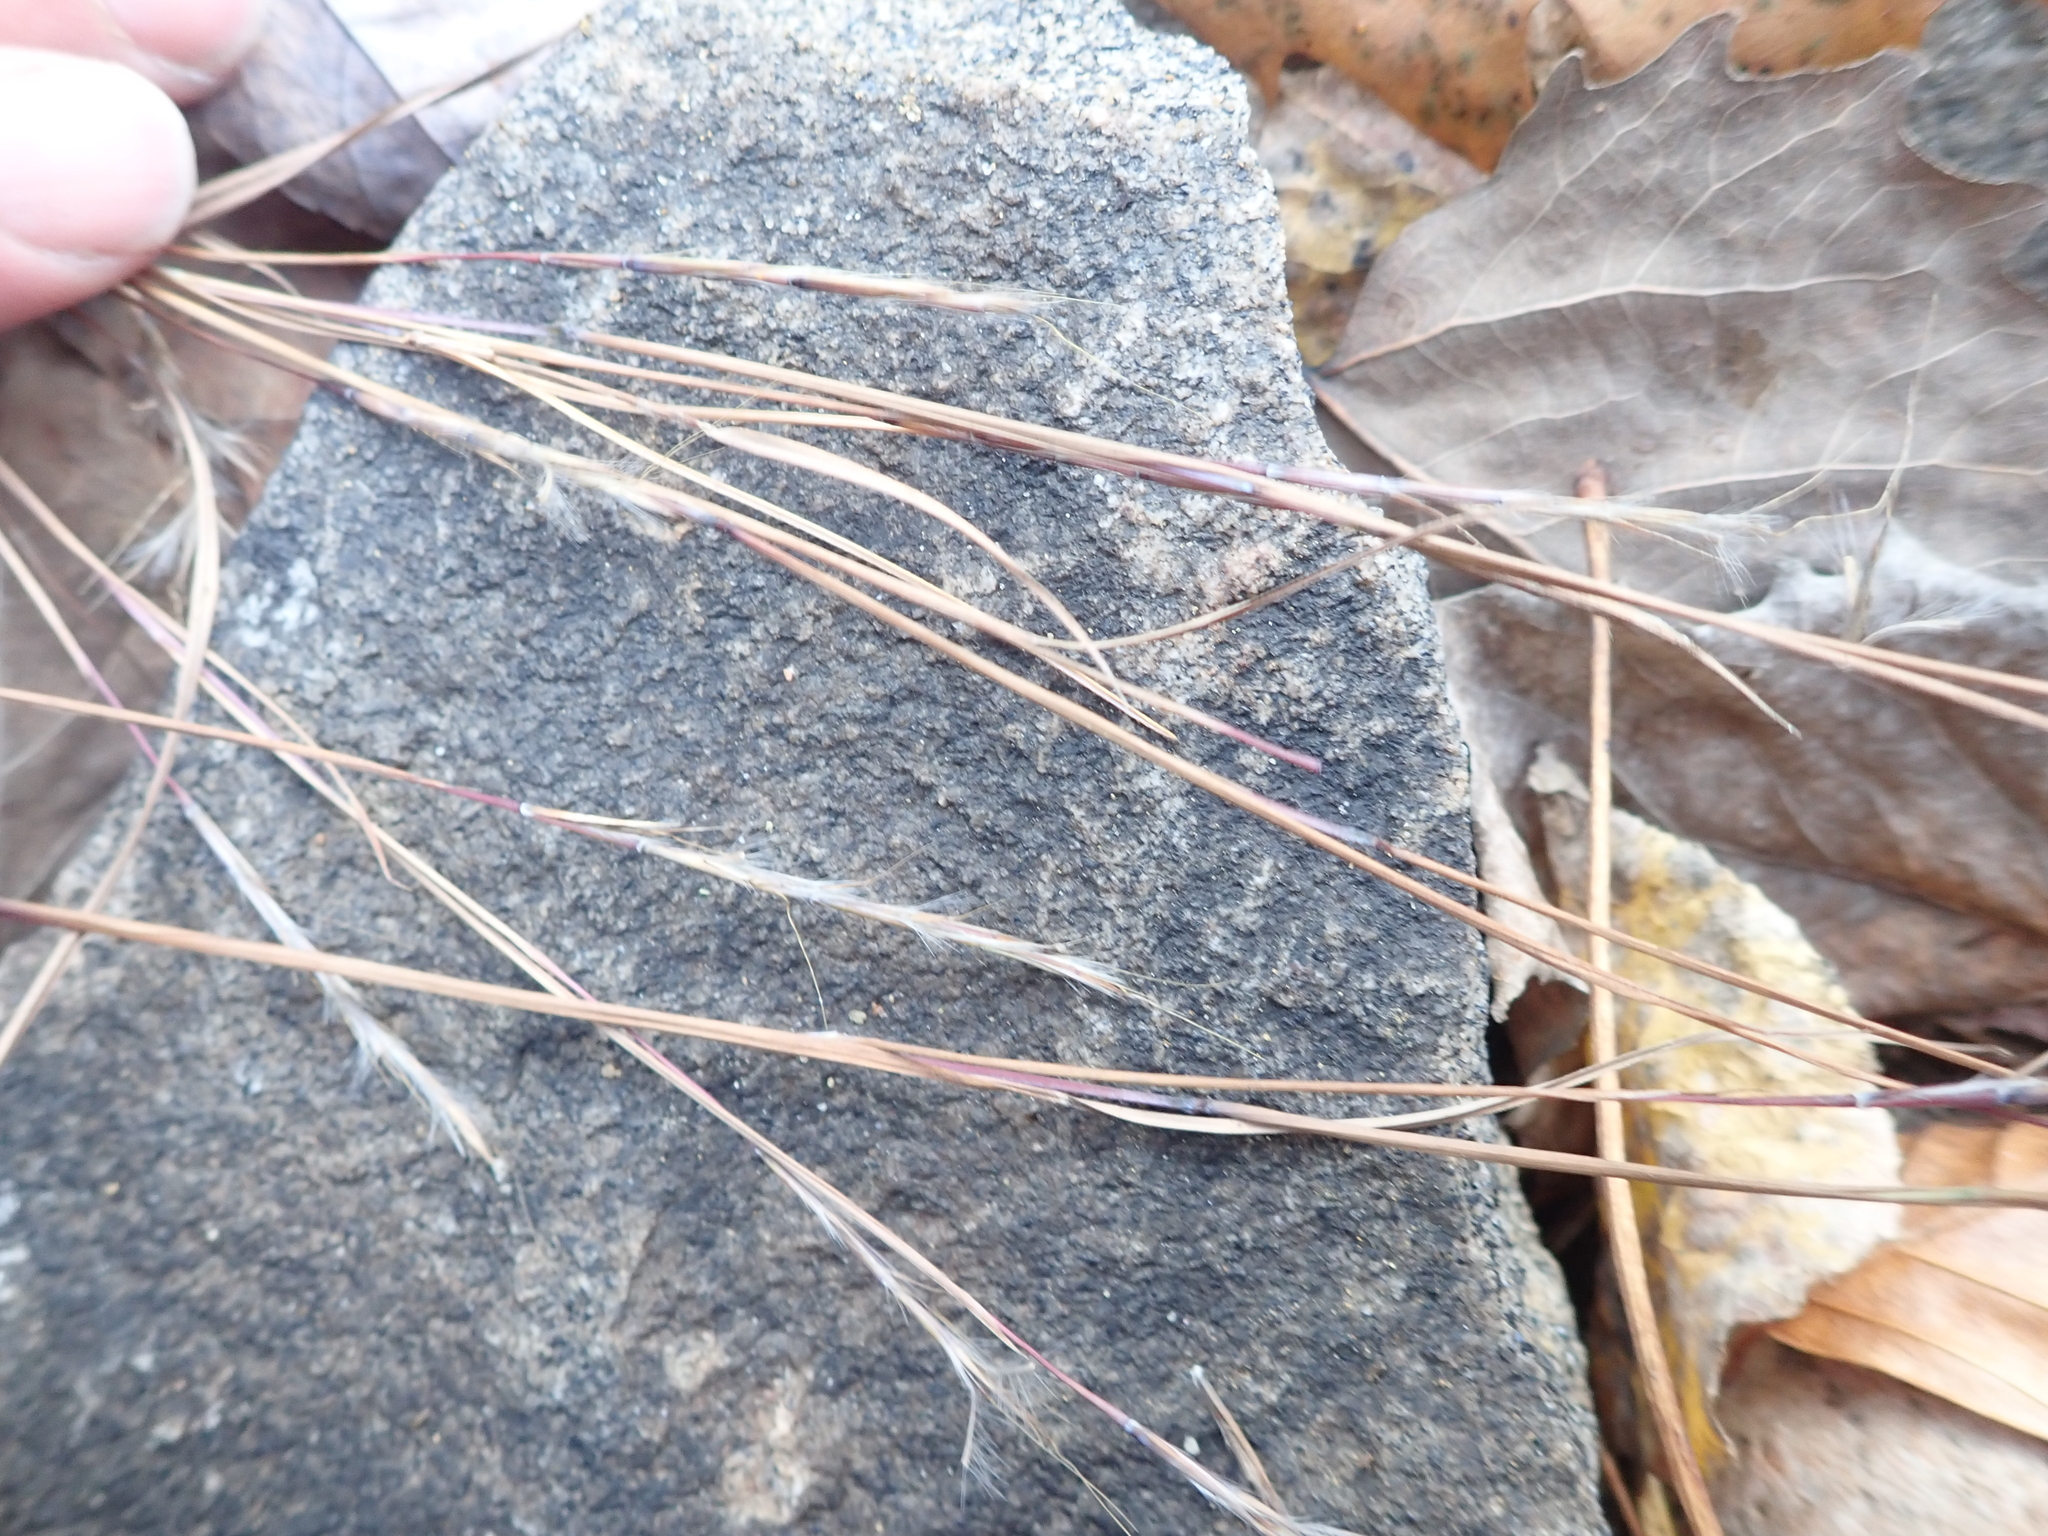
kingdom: Plantae
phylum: Tracheophyta
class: Liliopsida
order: Poales
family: Poaceae
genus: Schizachyrium
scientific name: Schizachyrium scoparium
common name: Little bluestem
